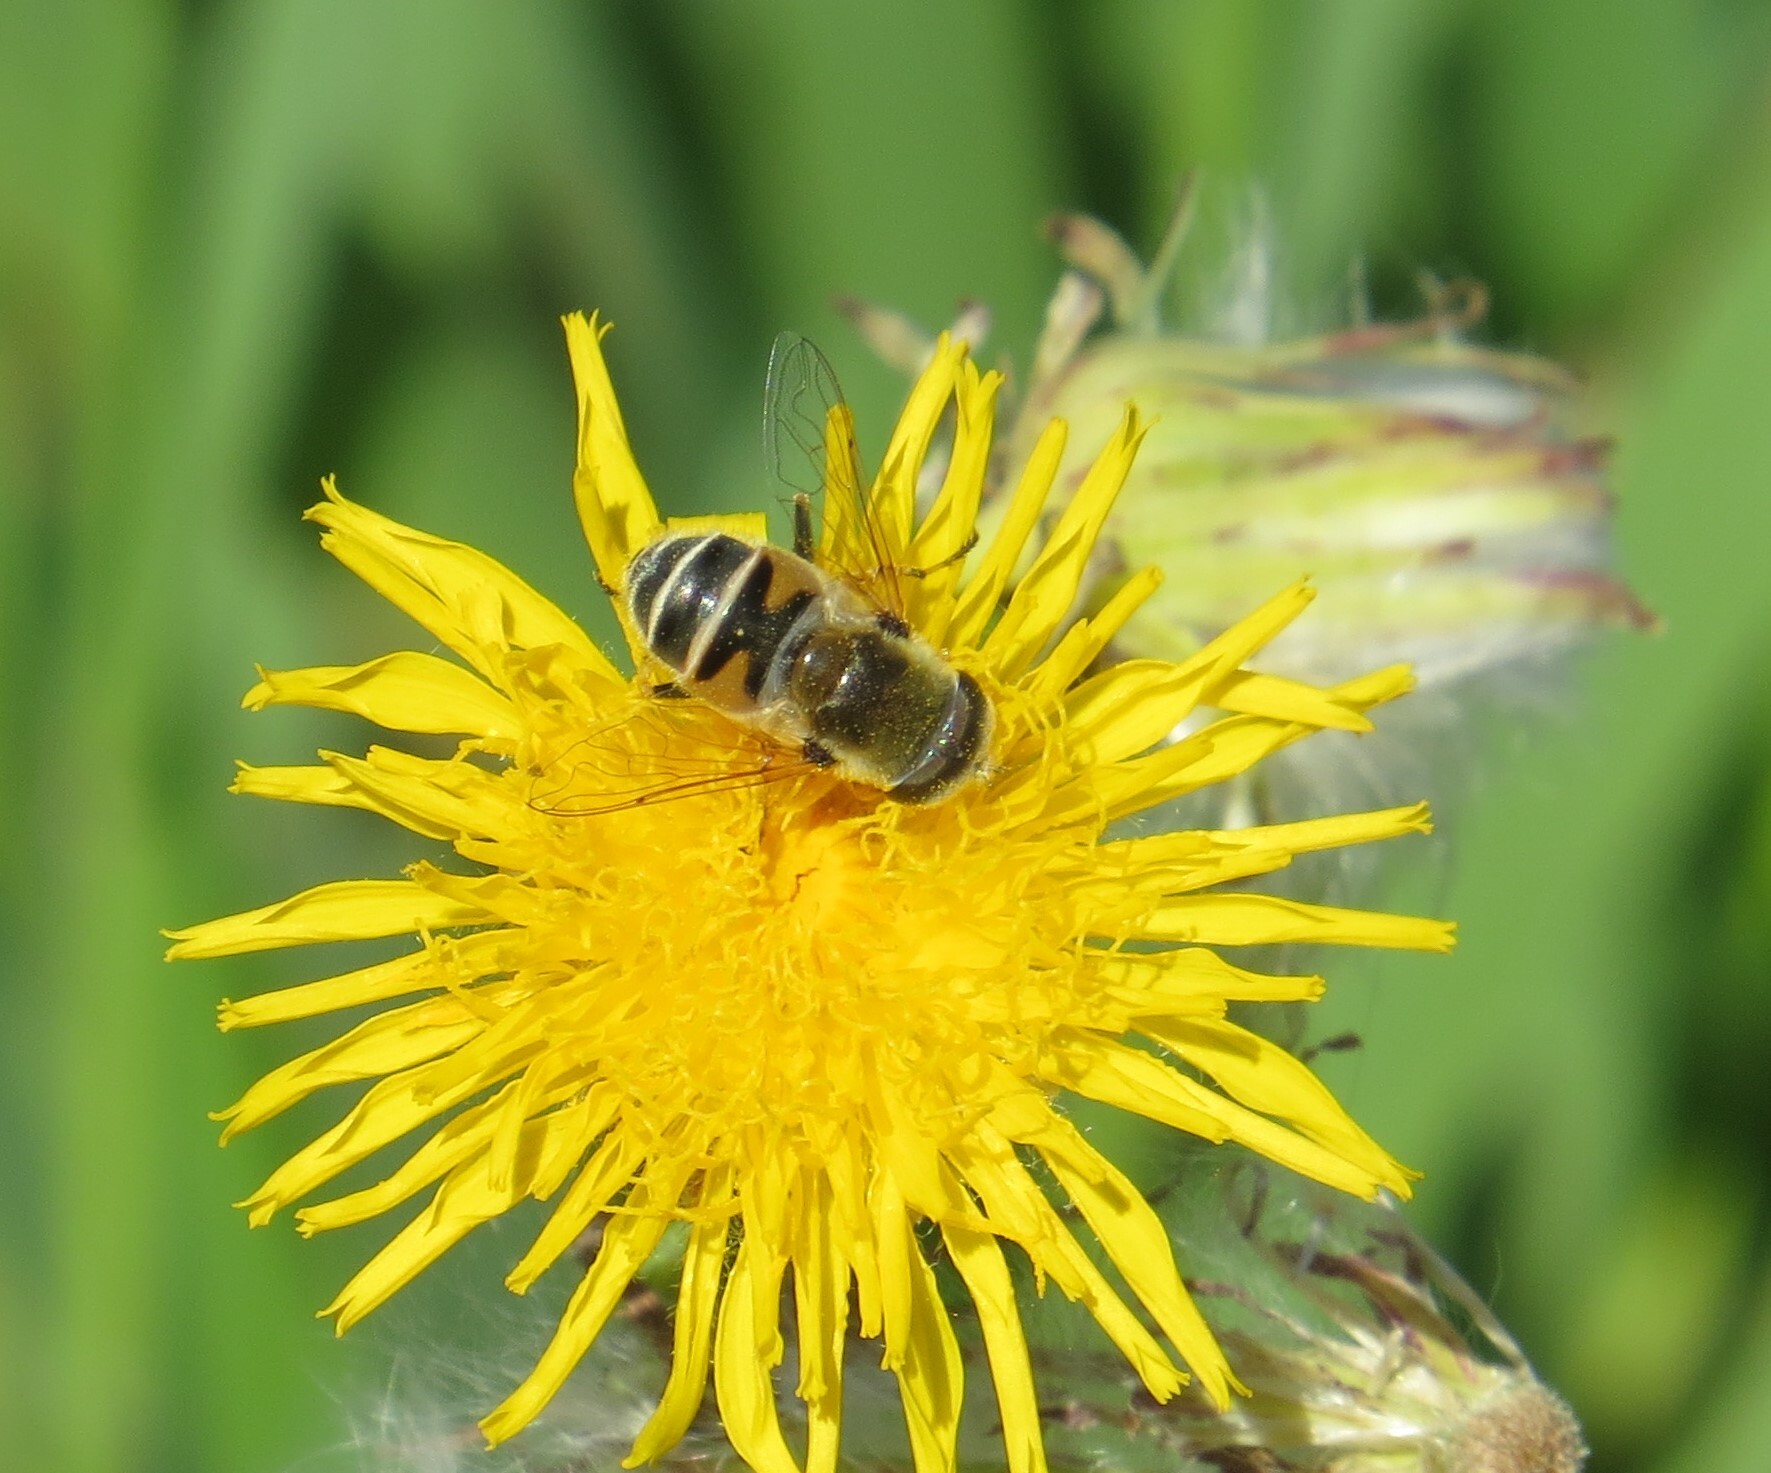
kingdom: Animalia
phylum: Arthropoda
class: Insecta
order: Diptera
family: Syrphidae
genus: Eristalis
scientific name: Eristalis stipator
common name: Yellow-shouldered drone fly
